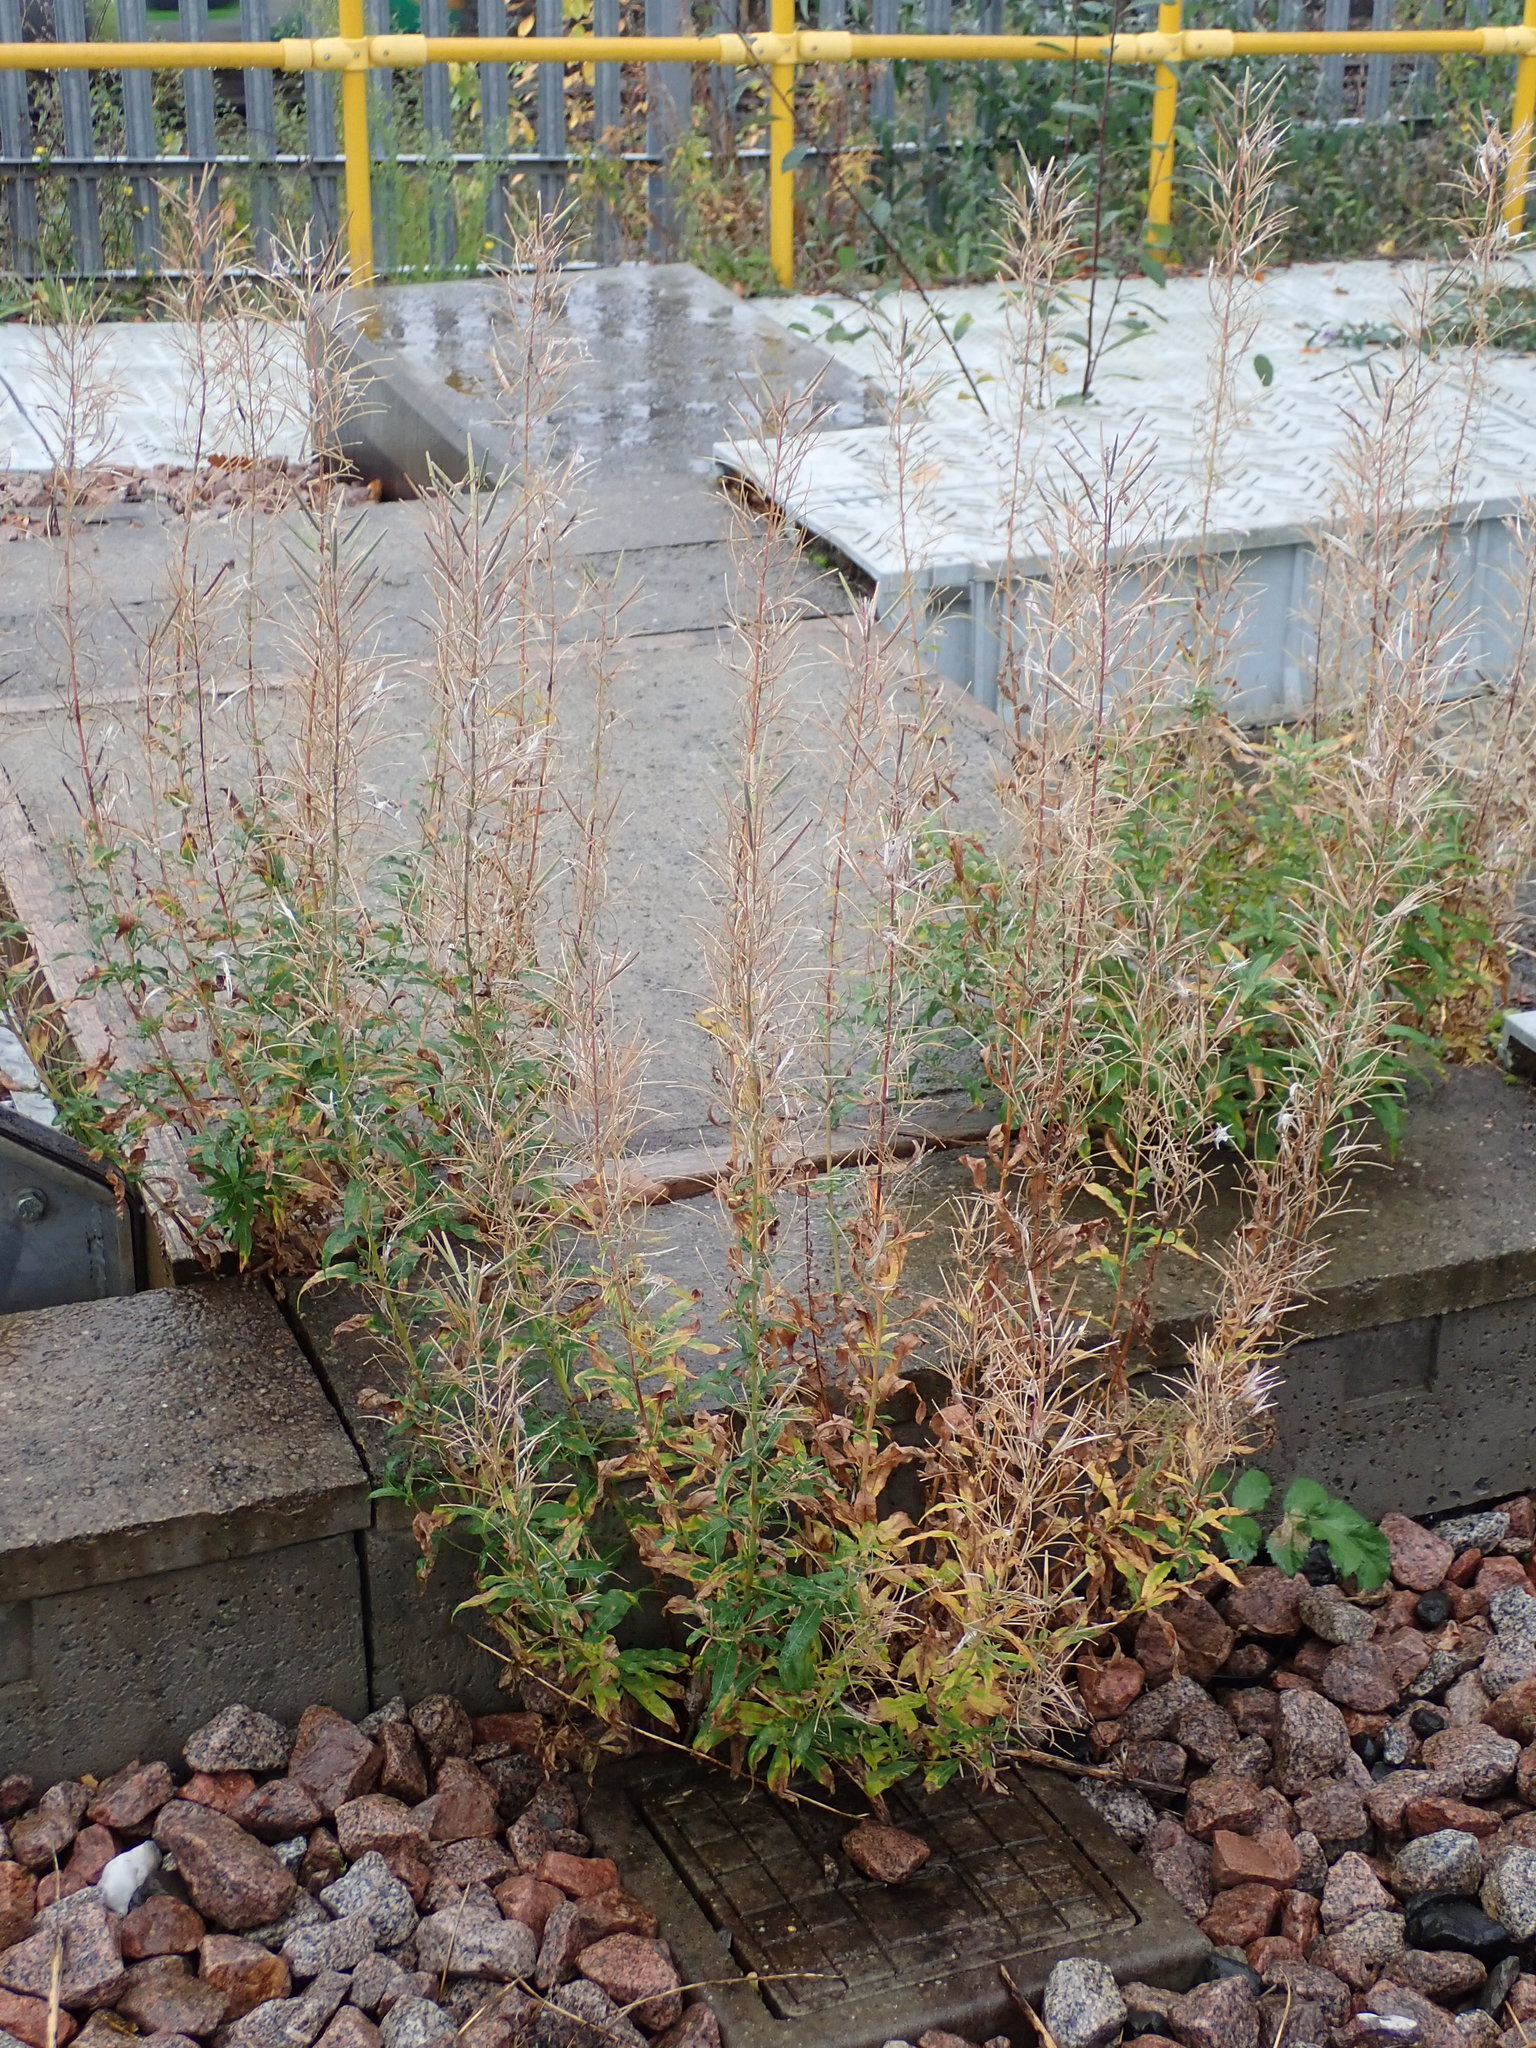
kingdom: Plantae
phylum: Tracheophyta
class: Magnoliopsida
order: Myrtales
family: Onagraceae
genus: Chamaenerion
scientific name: Chamaenerion angustifolium
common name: Fireweed
